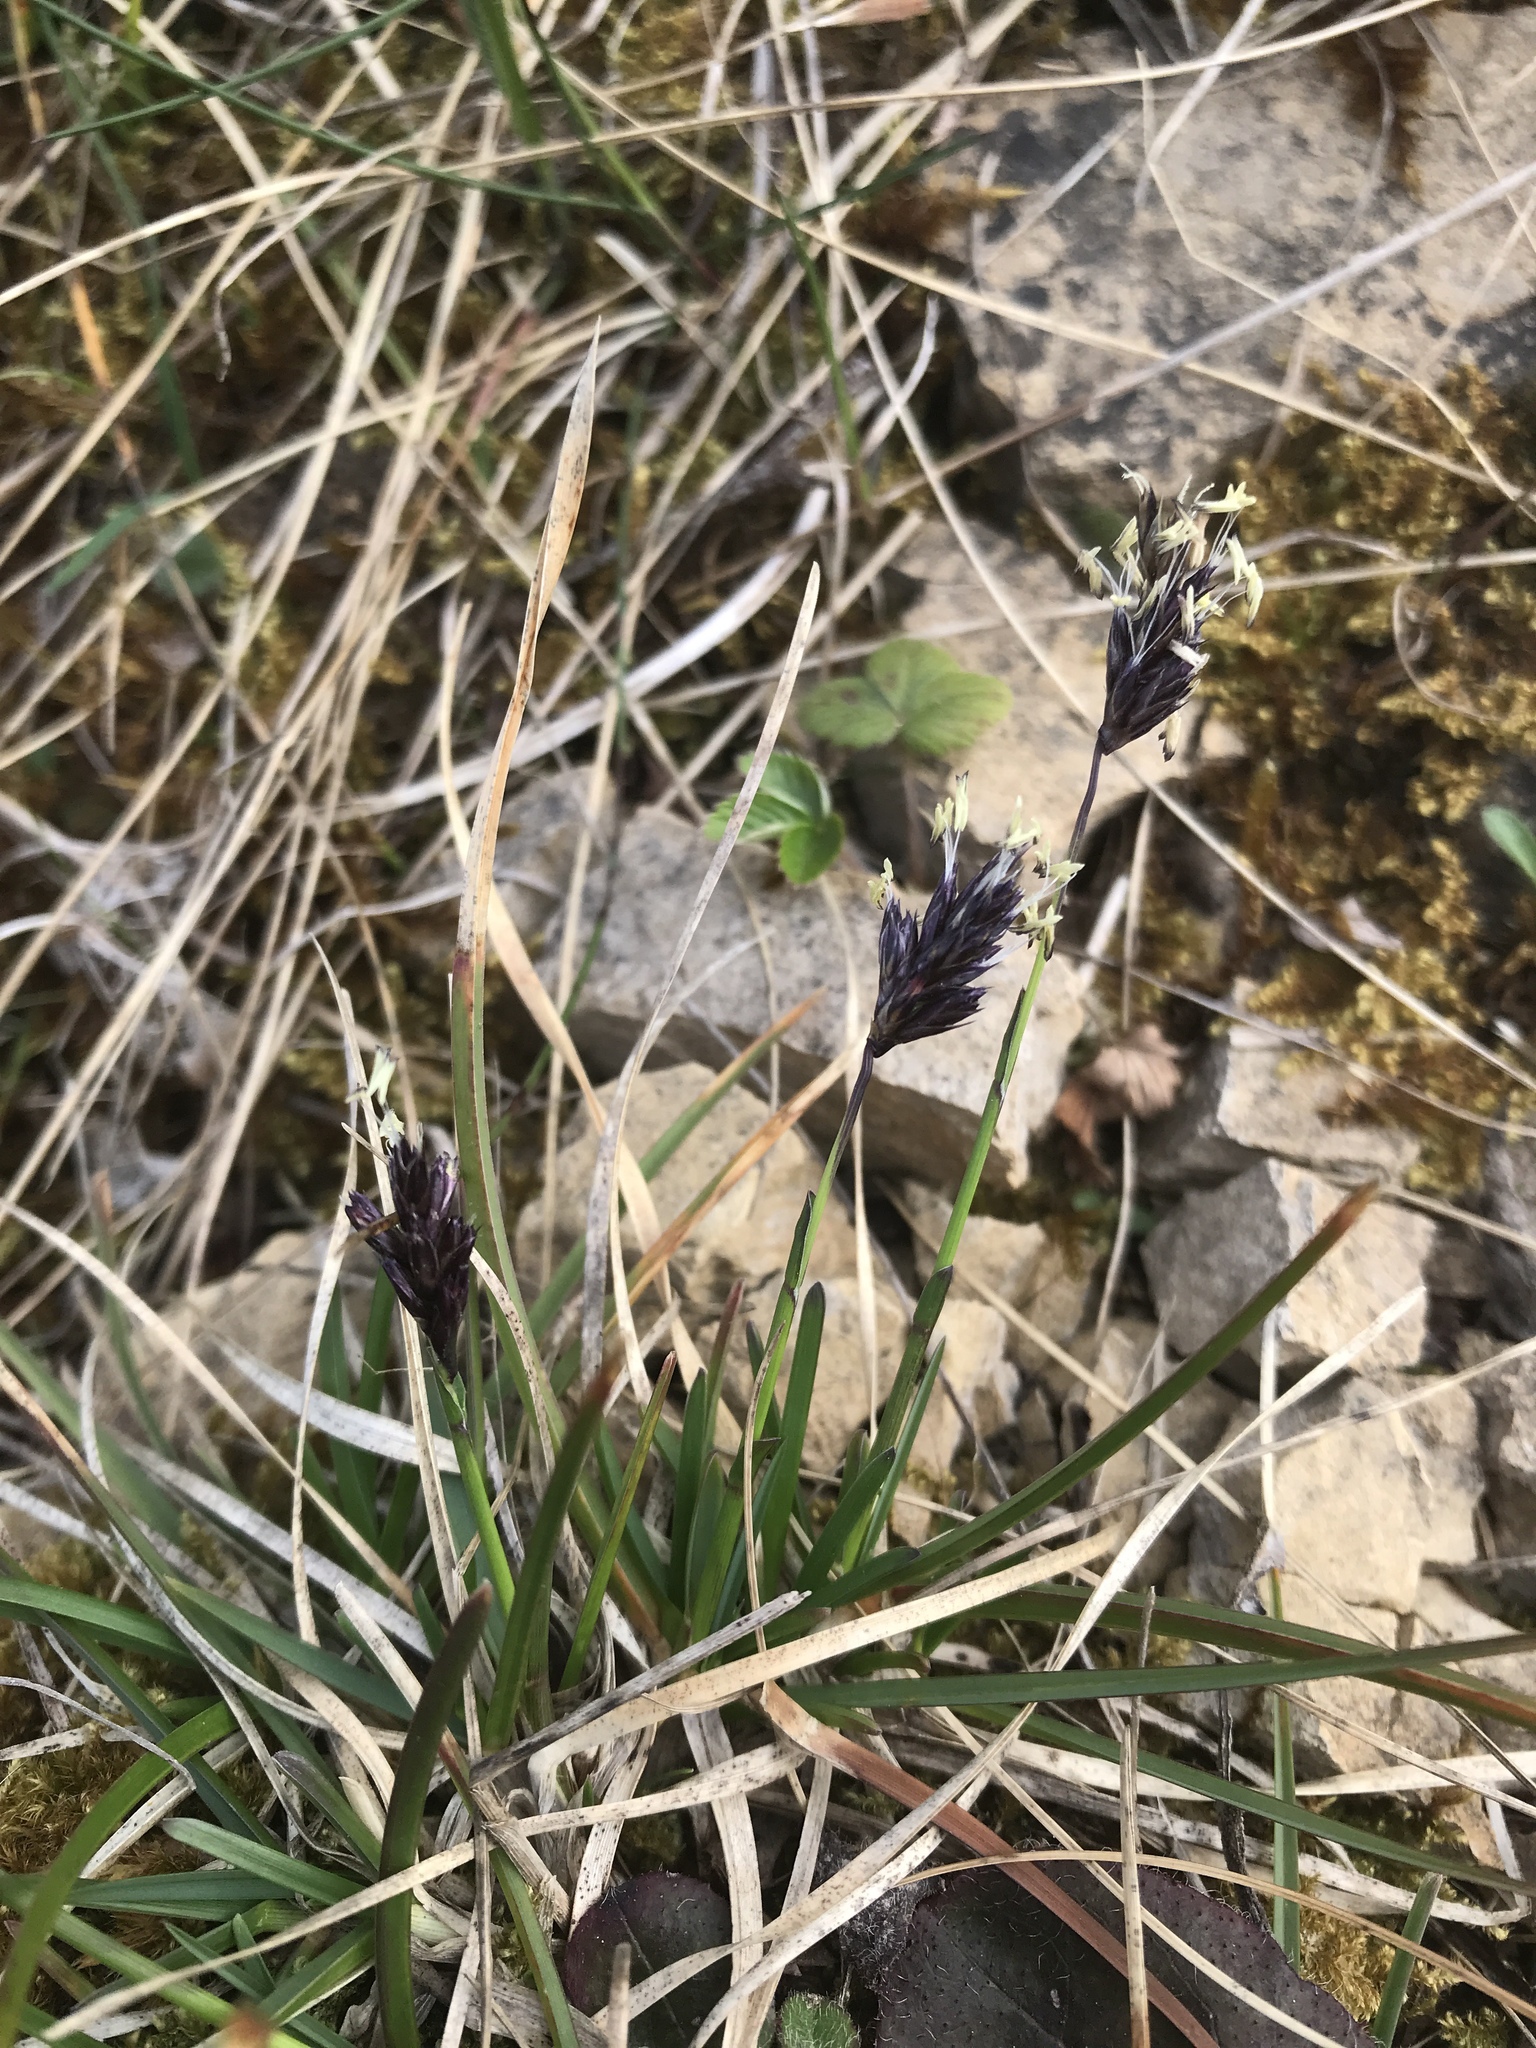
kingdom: Plantae
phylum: Tracheophyta
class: Liliopsida
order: Poales
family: Poaceae
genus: Sesleria
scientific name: Sesleria caerulea
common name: Blue moor-grass
